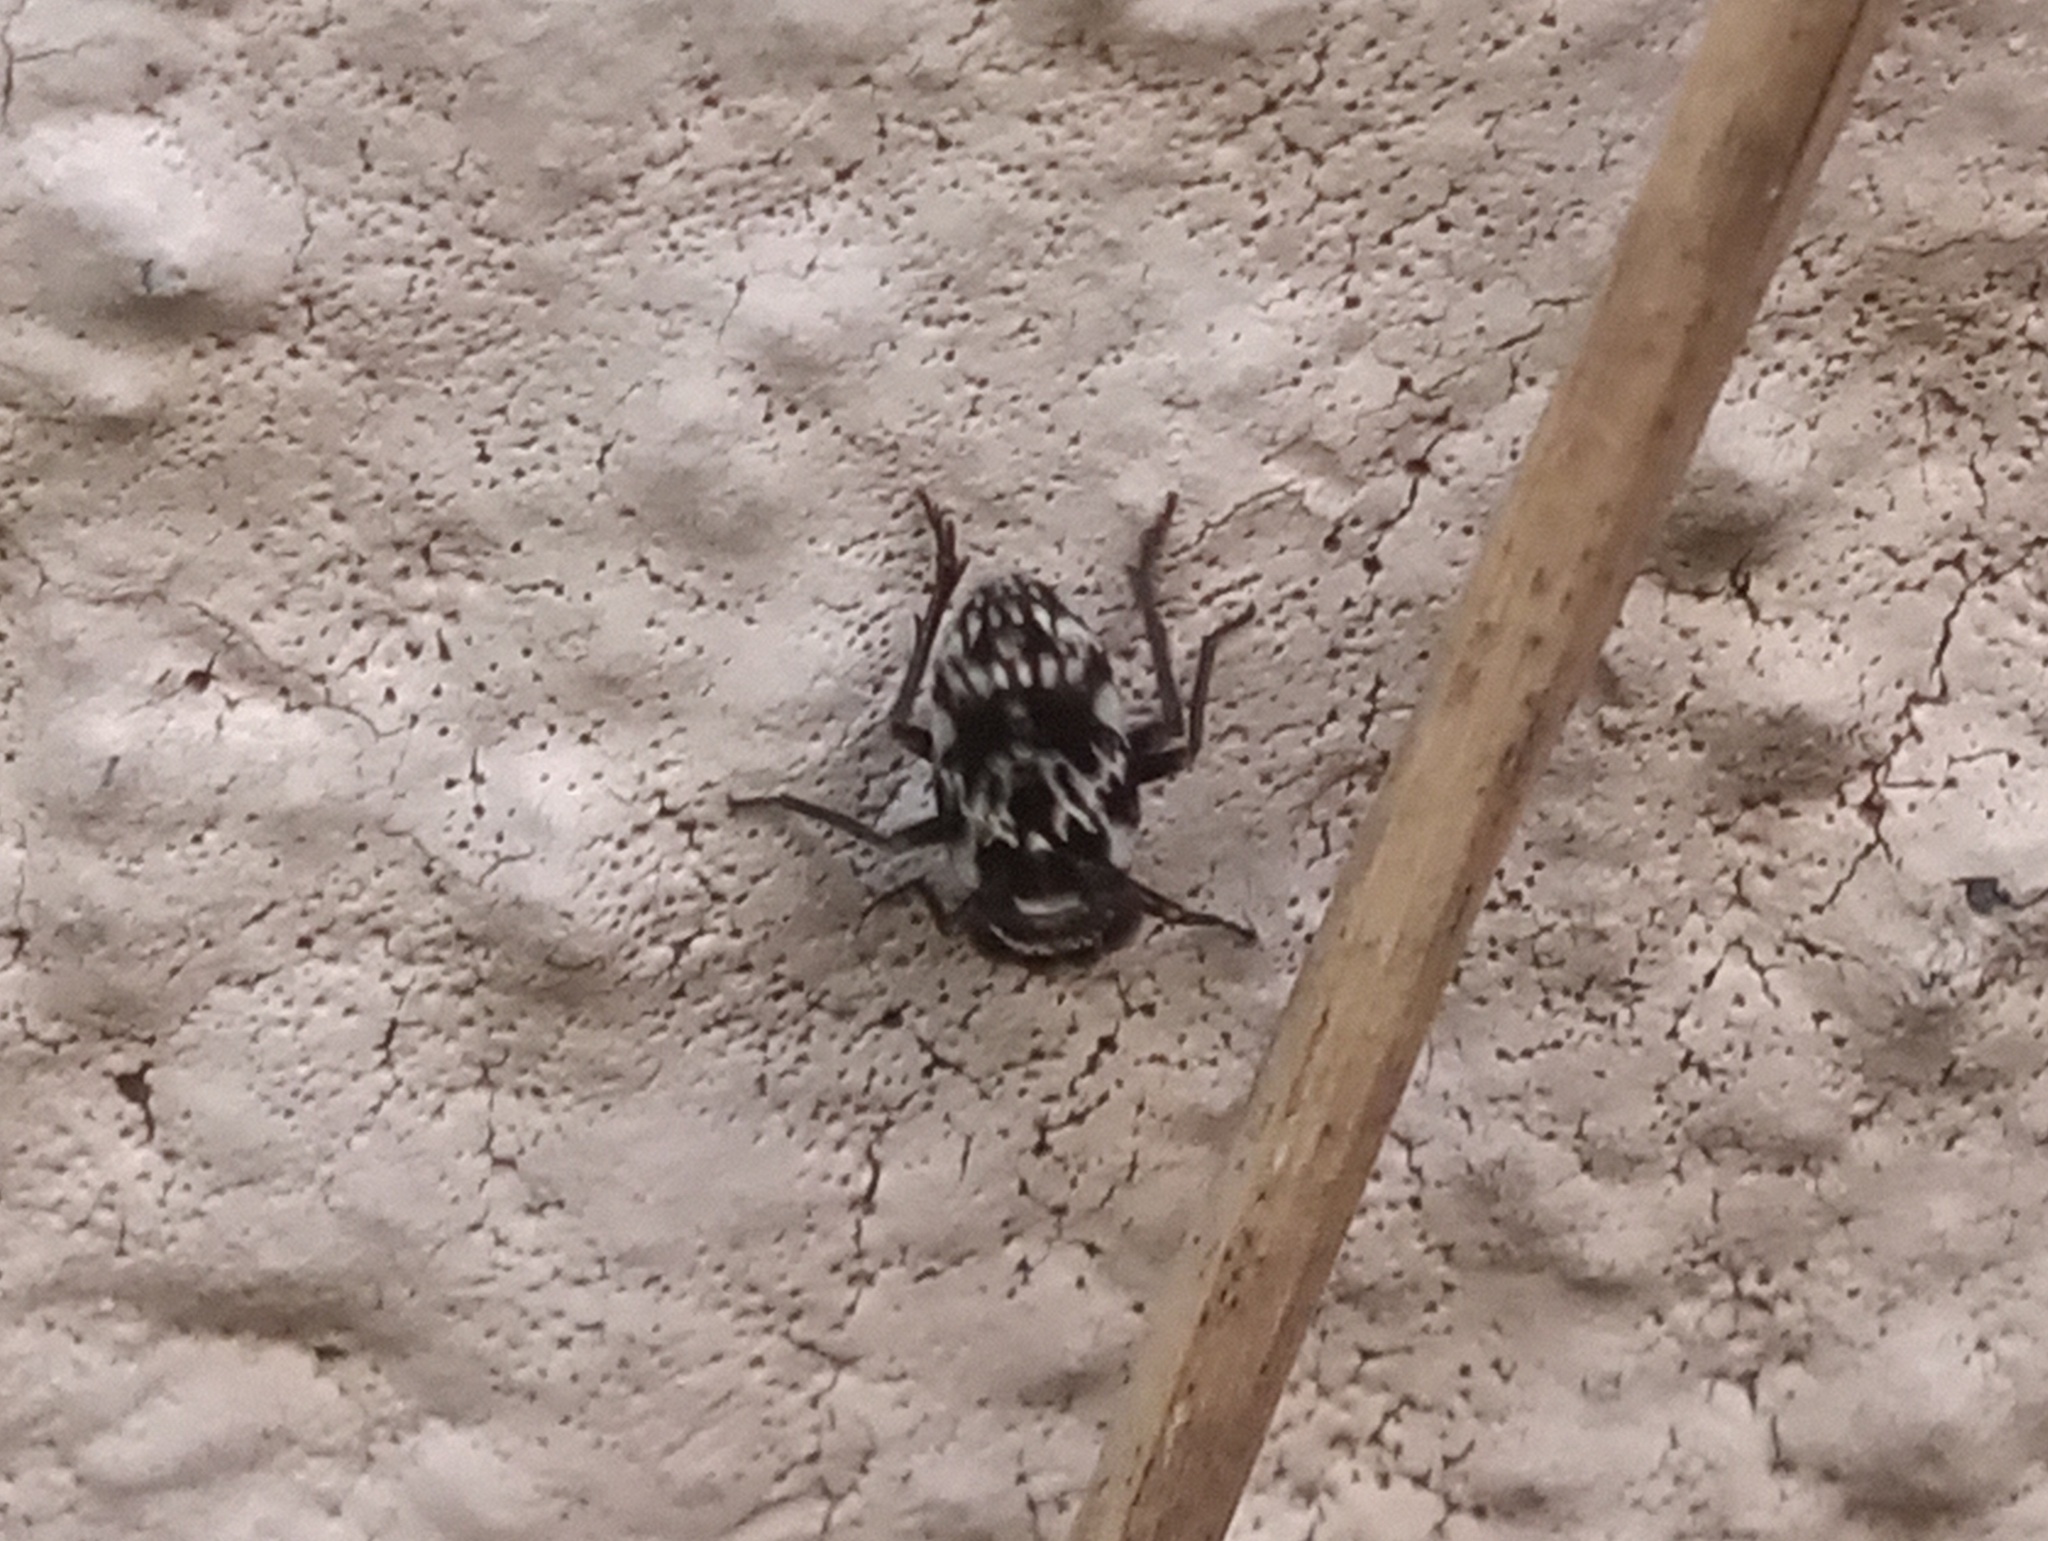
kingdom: Animalia
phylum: Arthropoda
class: Insecta
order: Hemiptera
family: Caliscelidae
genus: Bruchomorpha
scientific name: Bruchomorpha decorata
